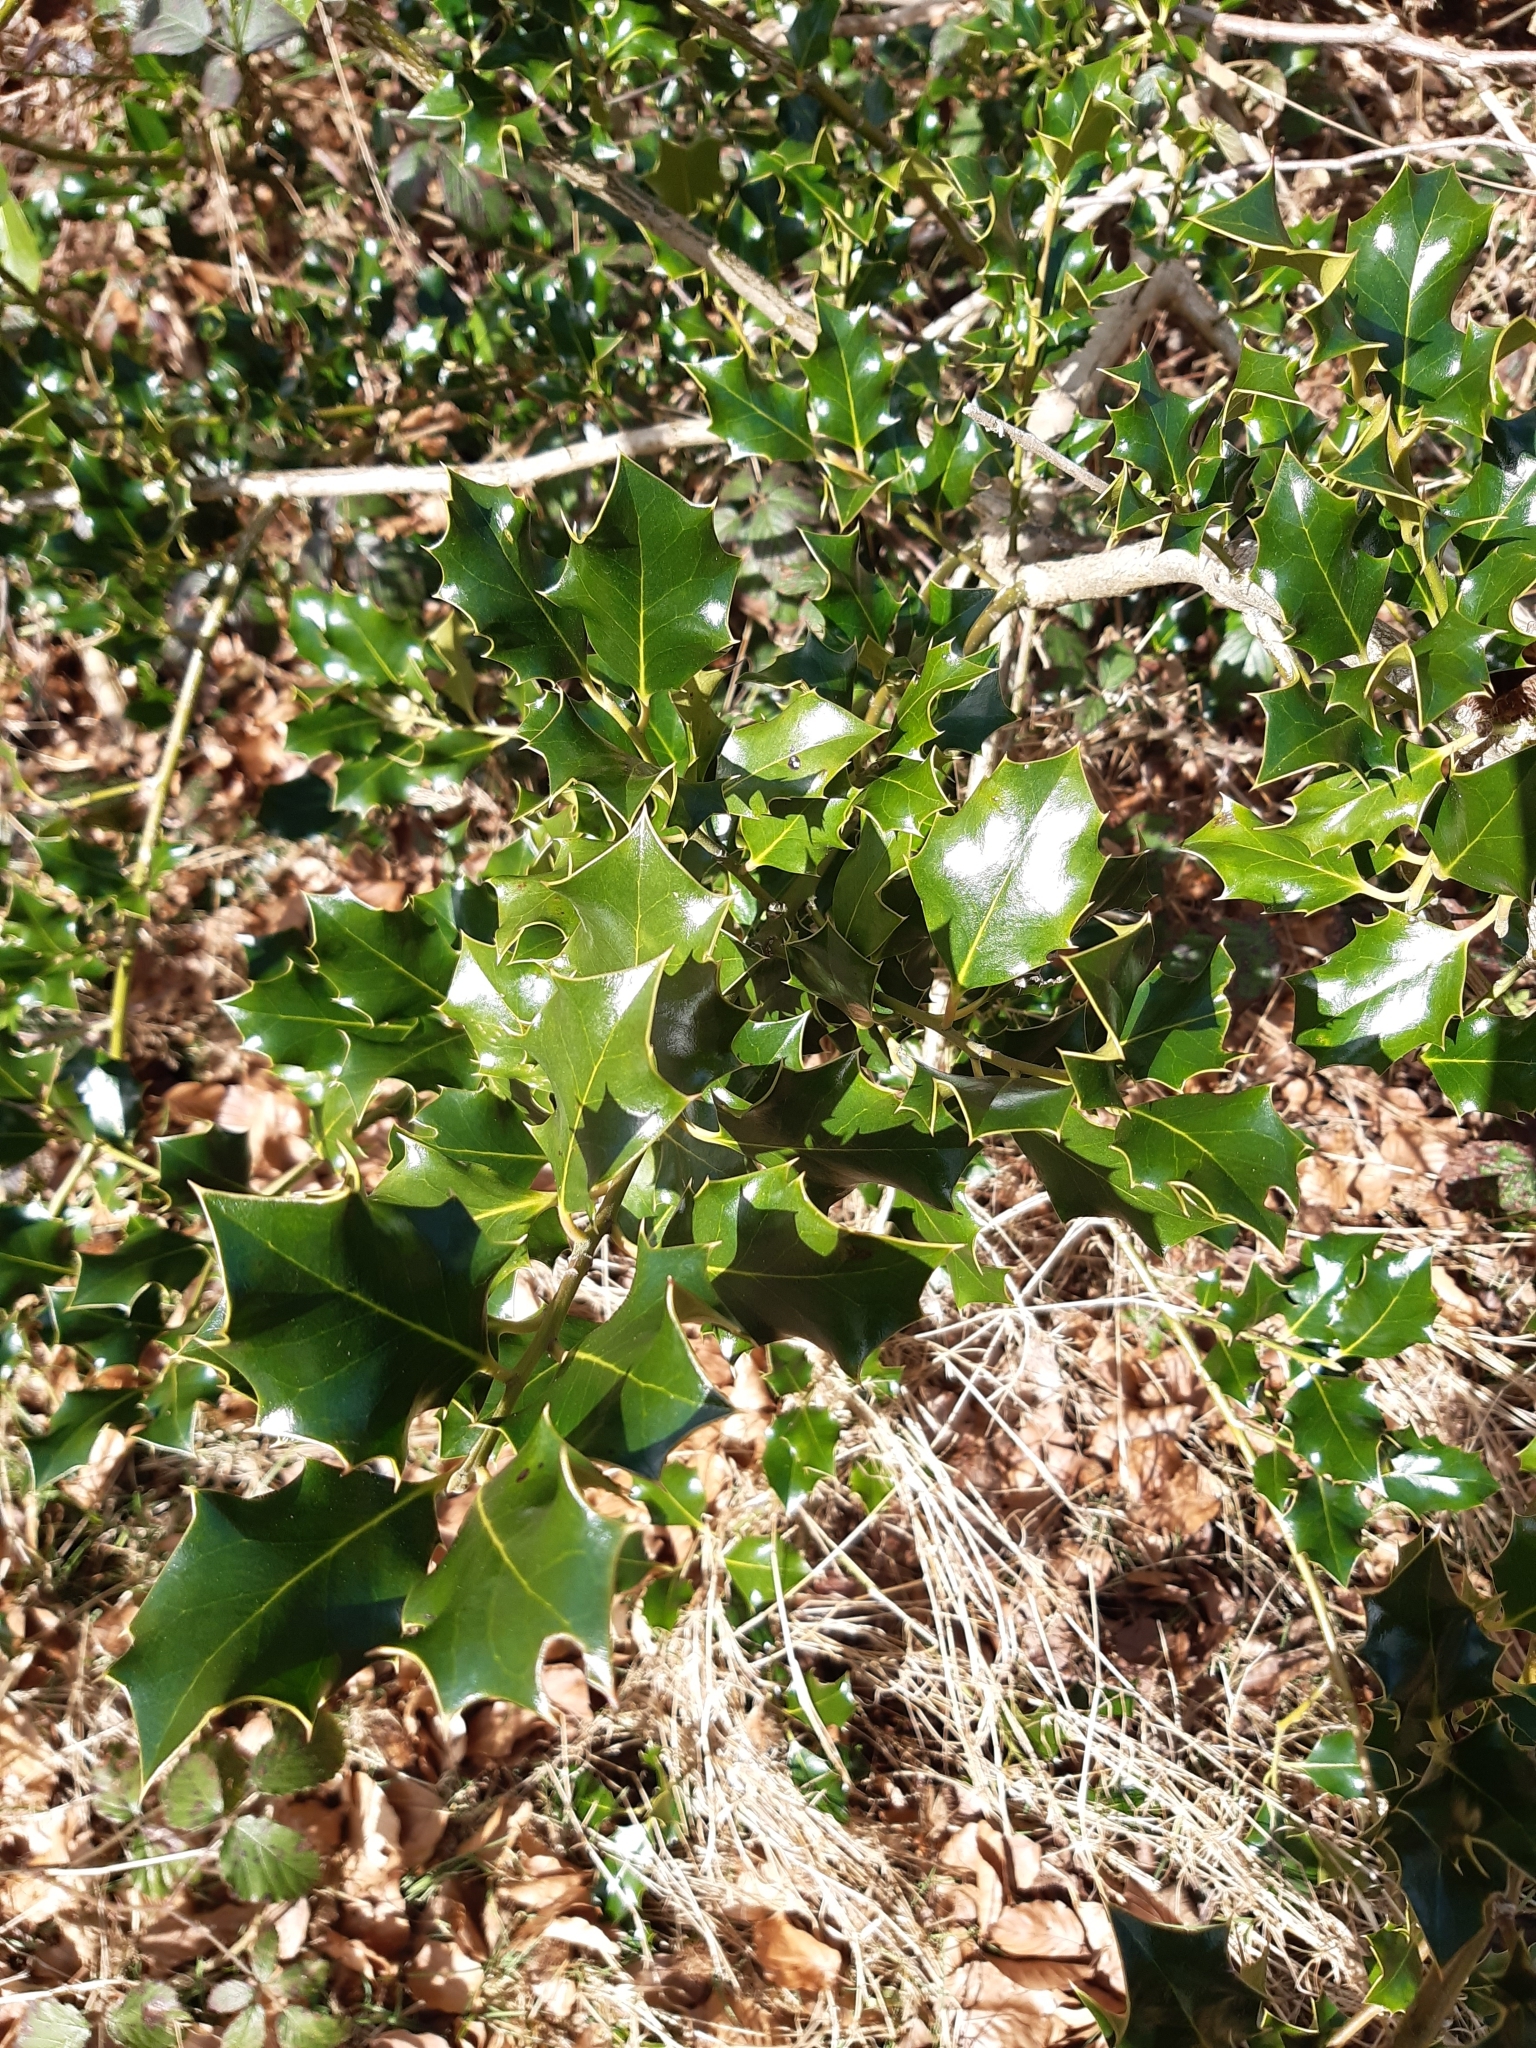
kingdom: Plantae
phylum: Tracheophyta
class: Magnoliopsida
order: Aquifoliales
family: Aquifoliaceae
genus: Ilex
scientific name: Ilex aquifolium
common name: English holly
